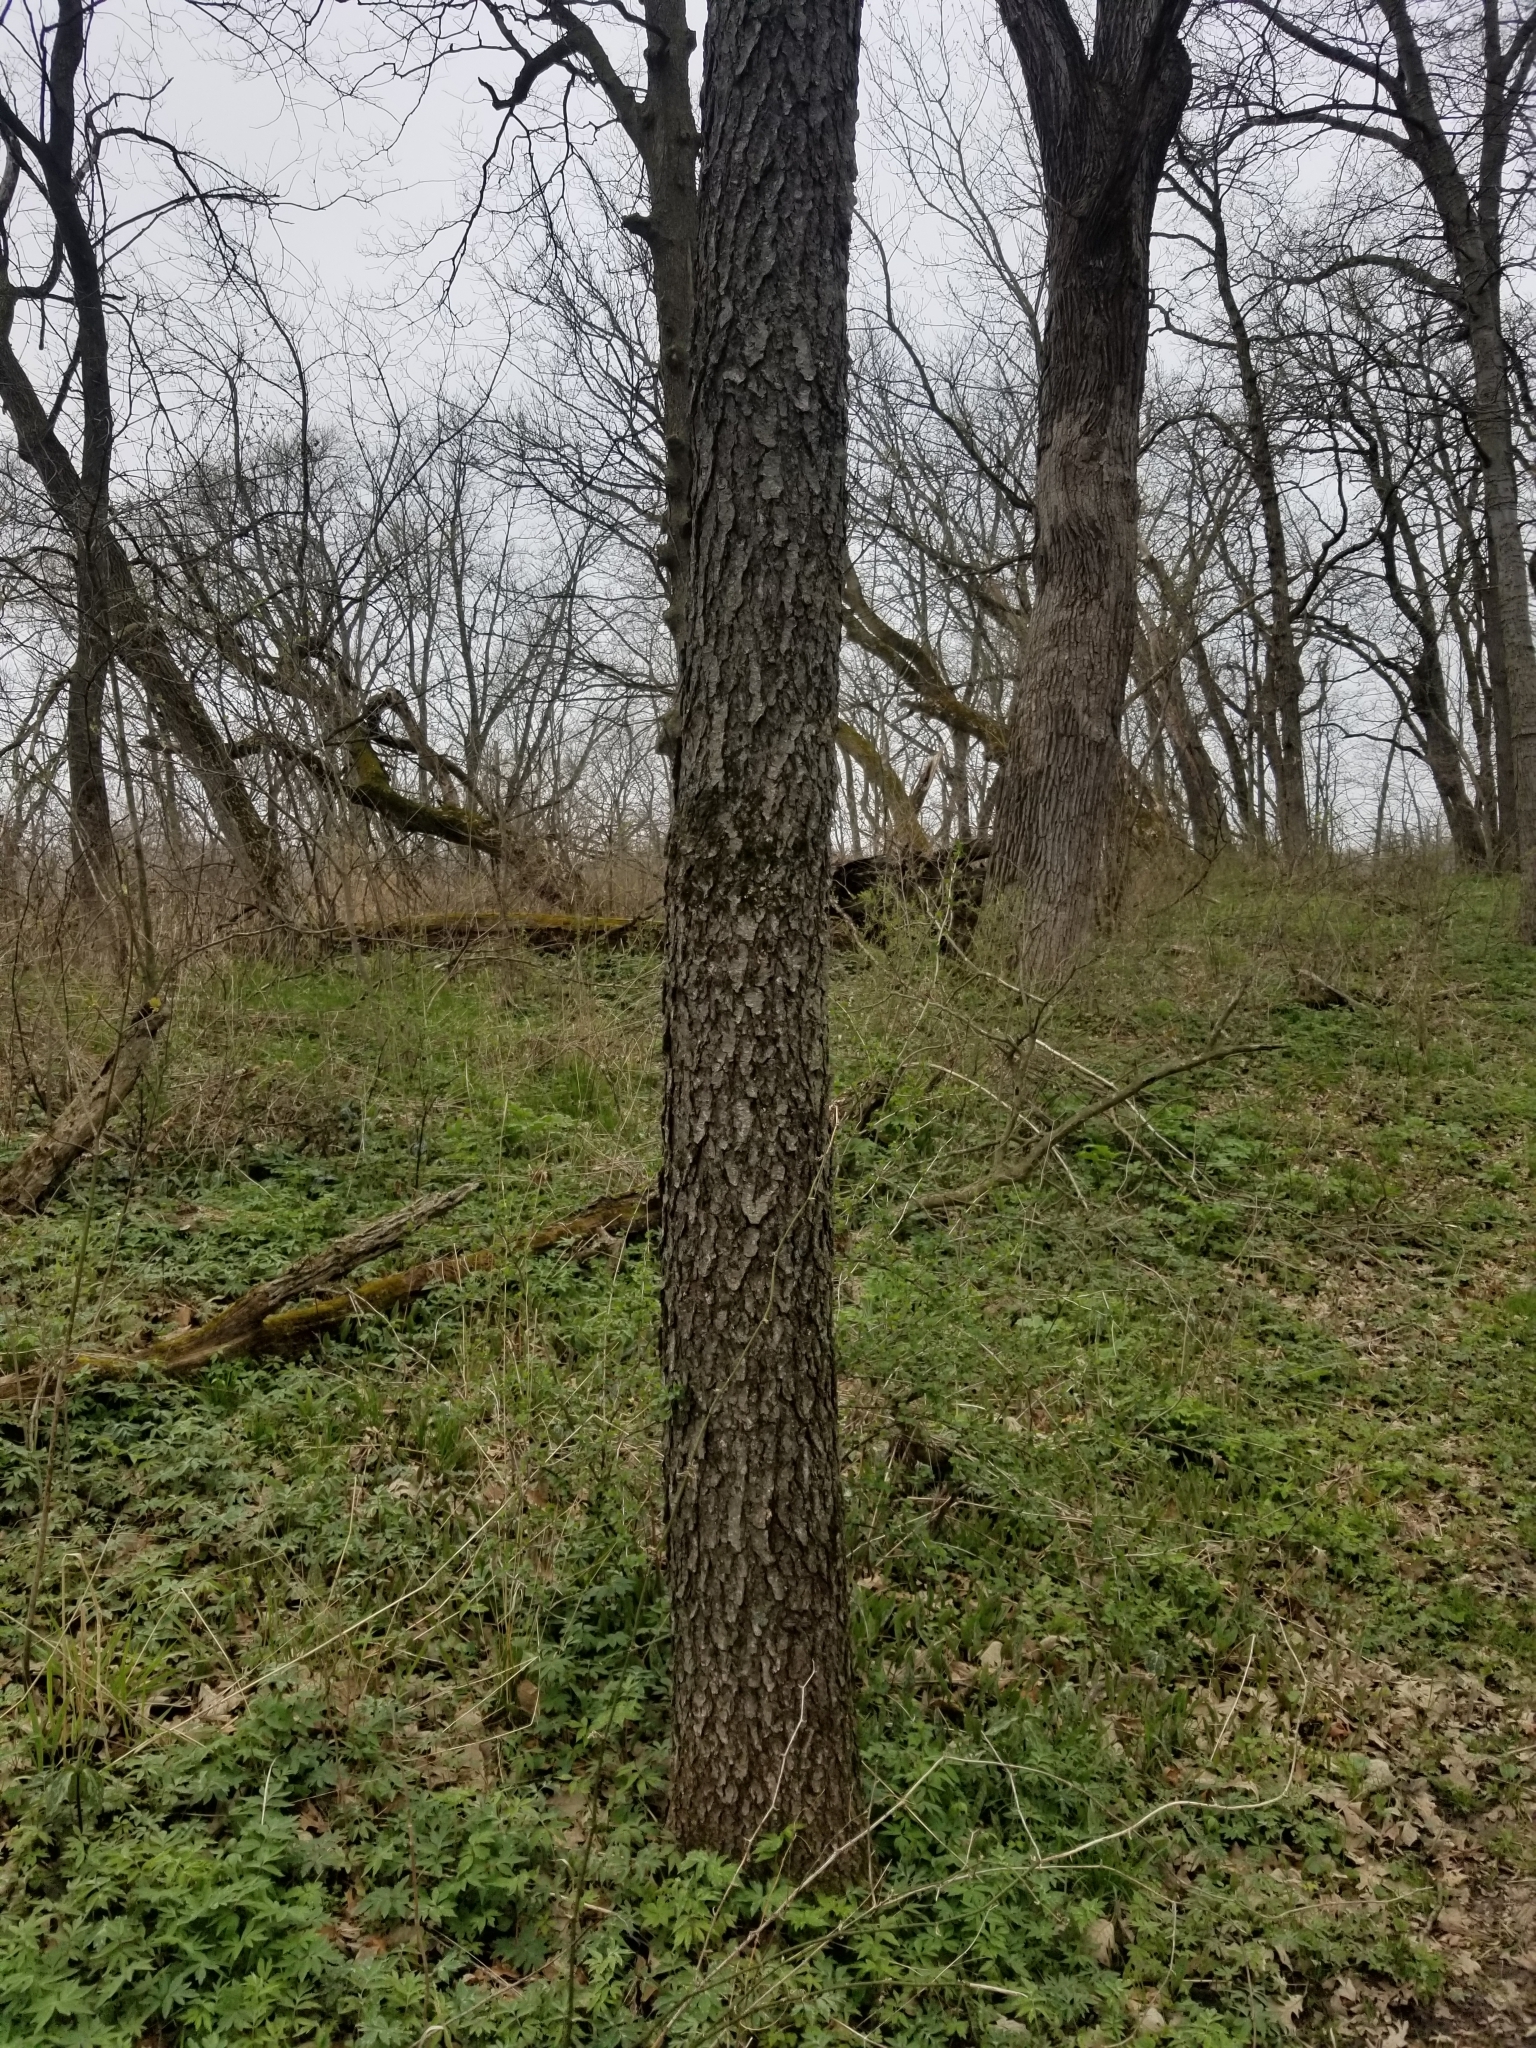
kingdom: Plantae
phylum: Tracheophyta
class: Magnoliopsida
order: Rosales
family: Rosaceae
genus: Prunus
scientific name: Prunus serotina
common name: Black cherry
